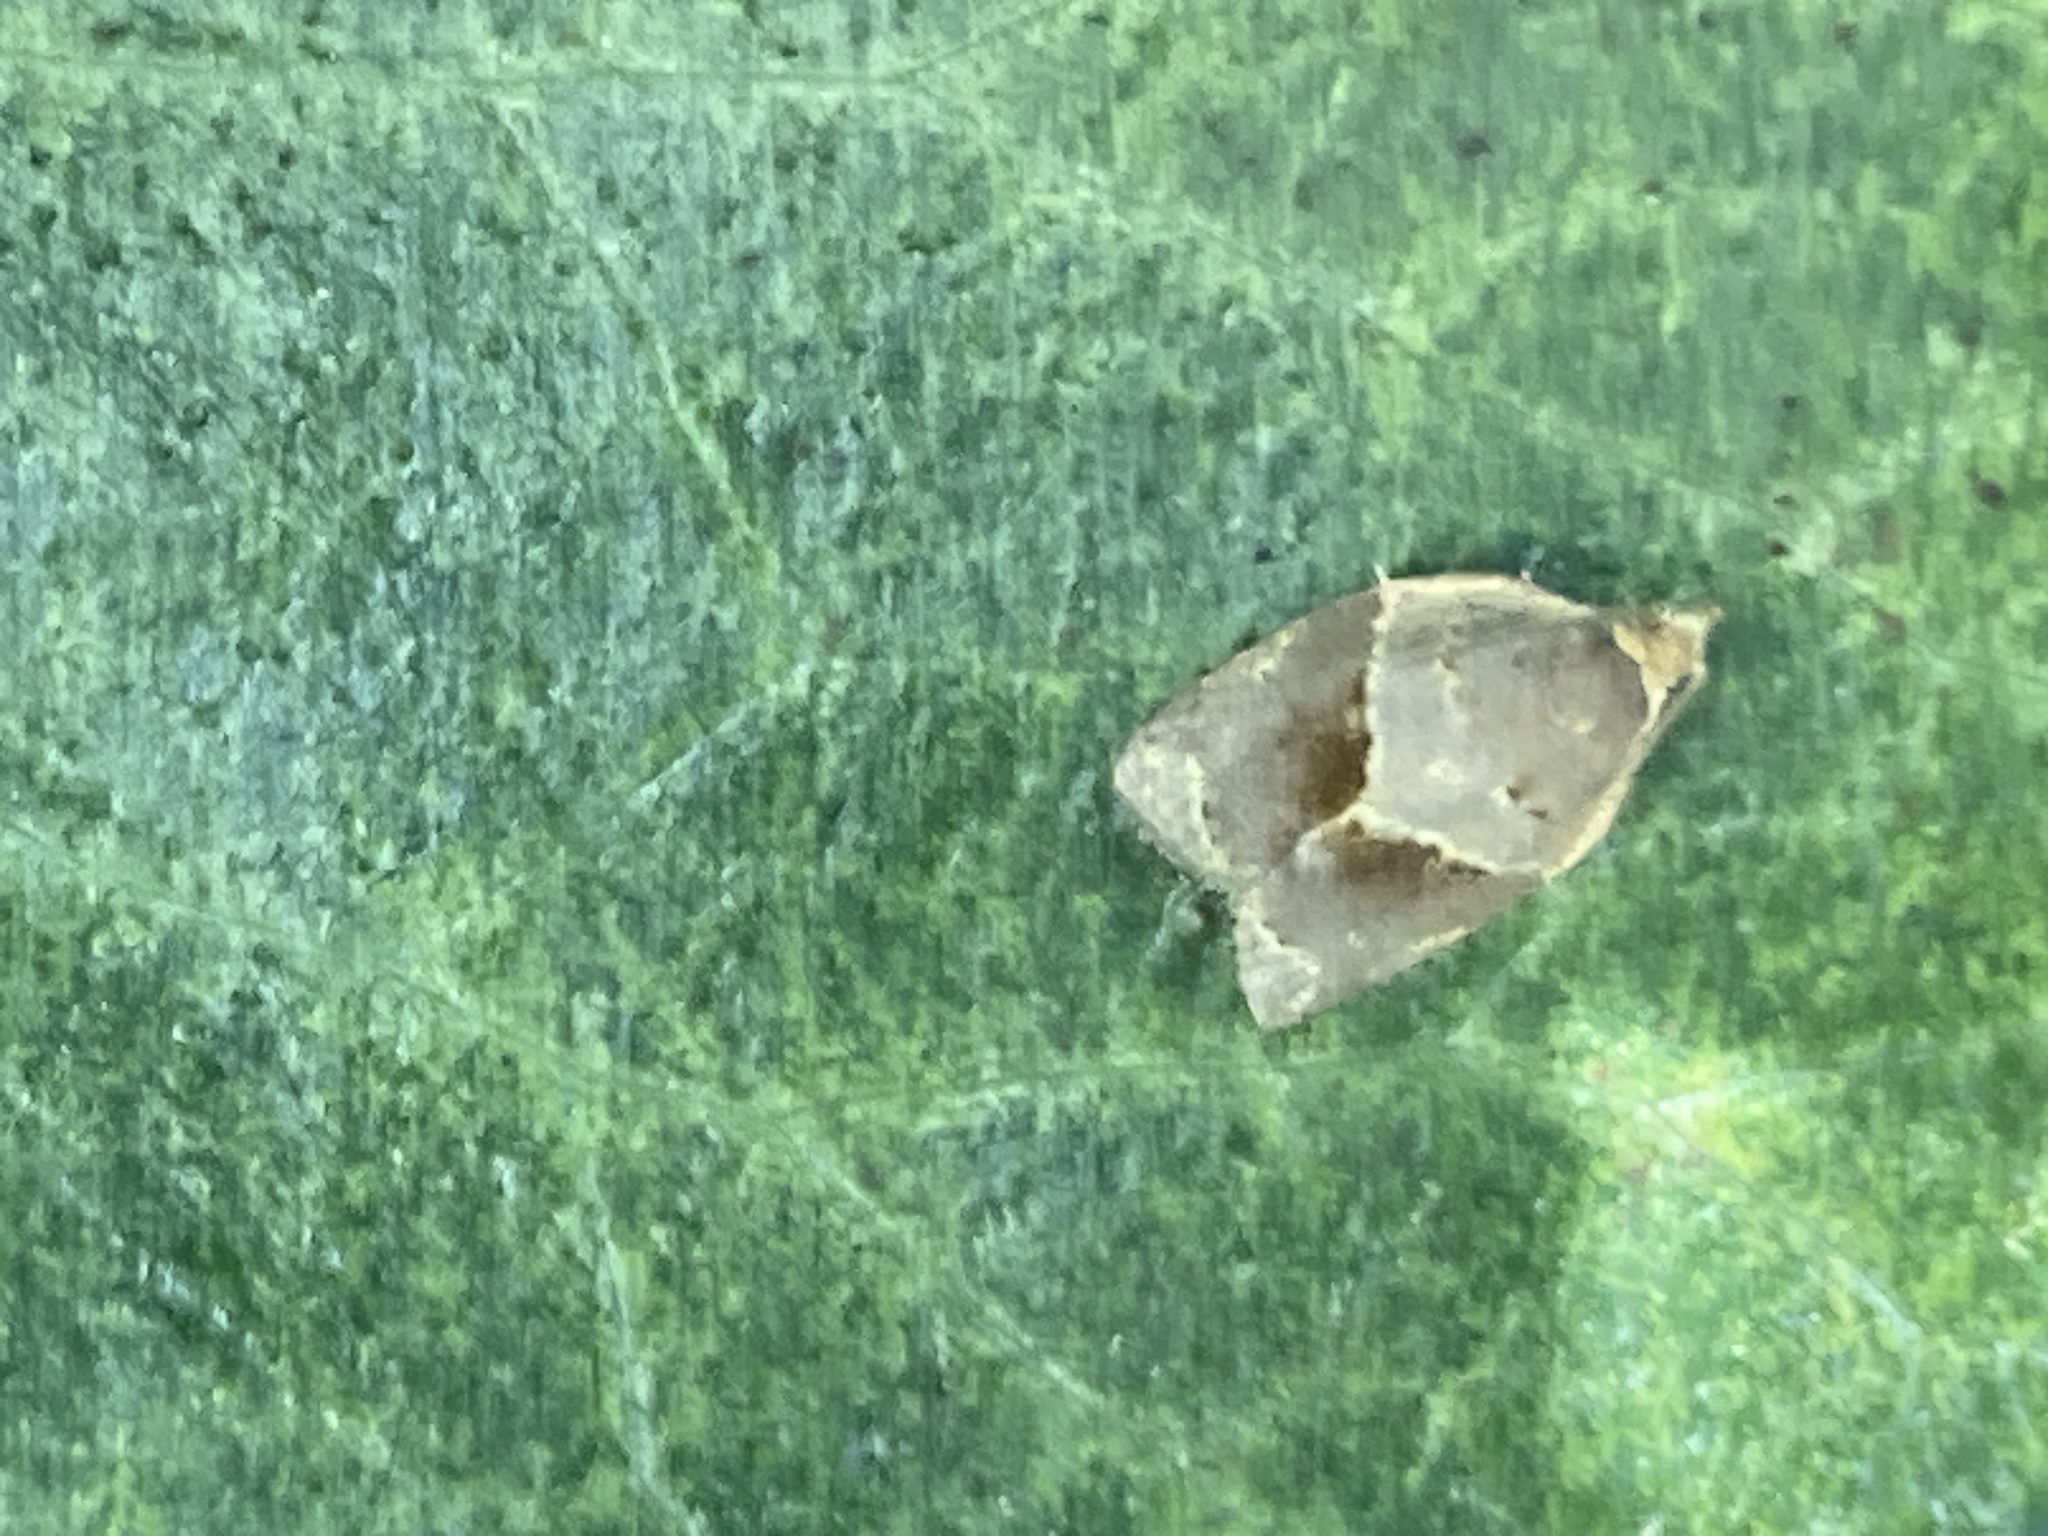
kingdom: Animalia
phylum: Arthropoda
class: Insecta
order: Lepidoptera
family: Tortricidae
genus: Clepsis
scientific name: Clepsis dumicolana
